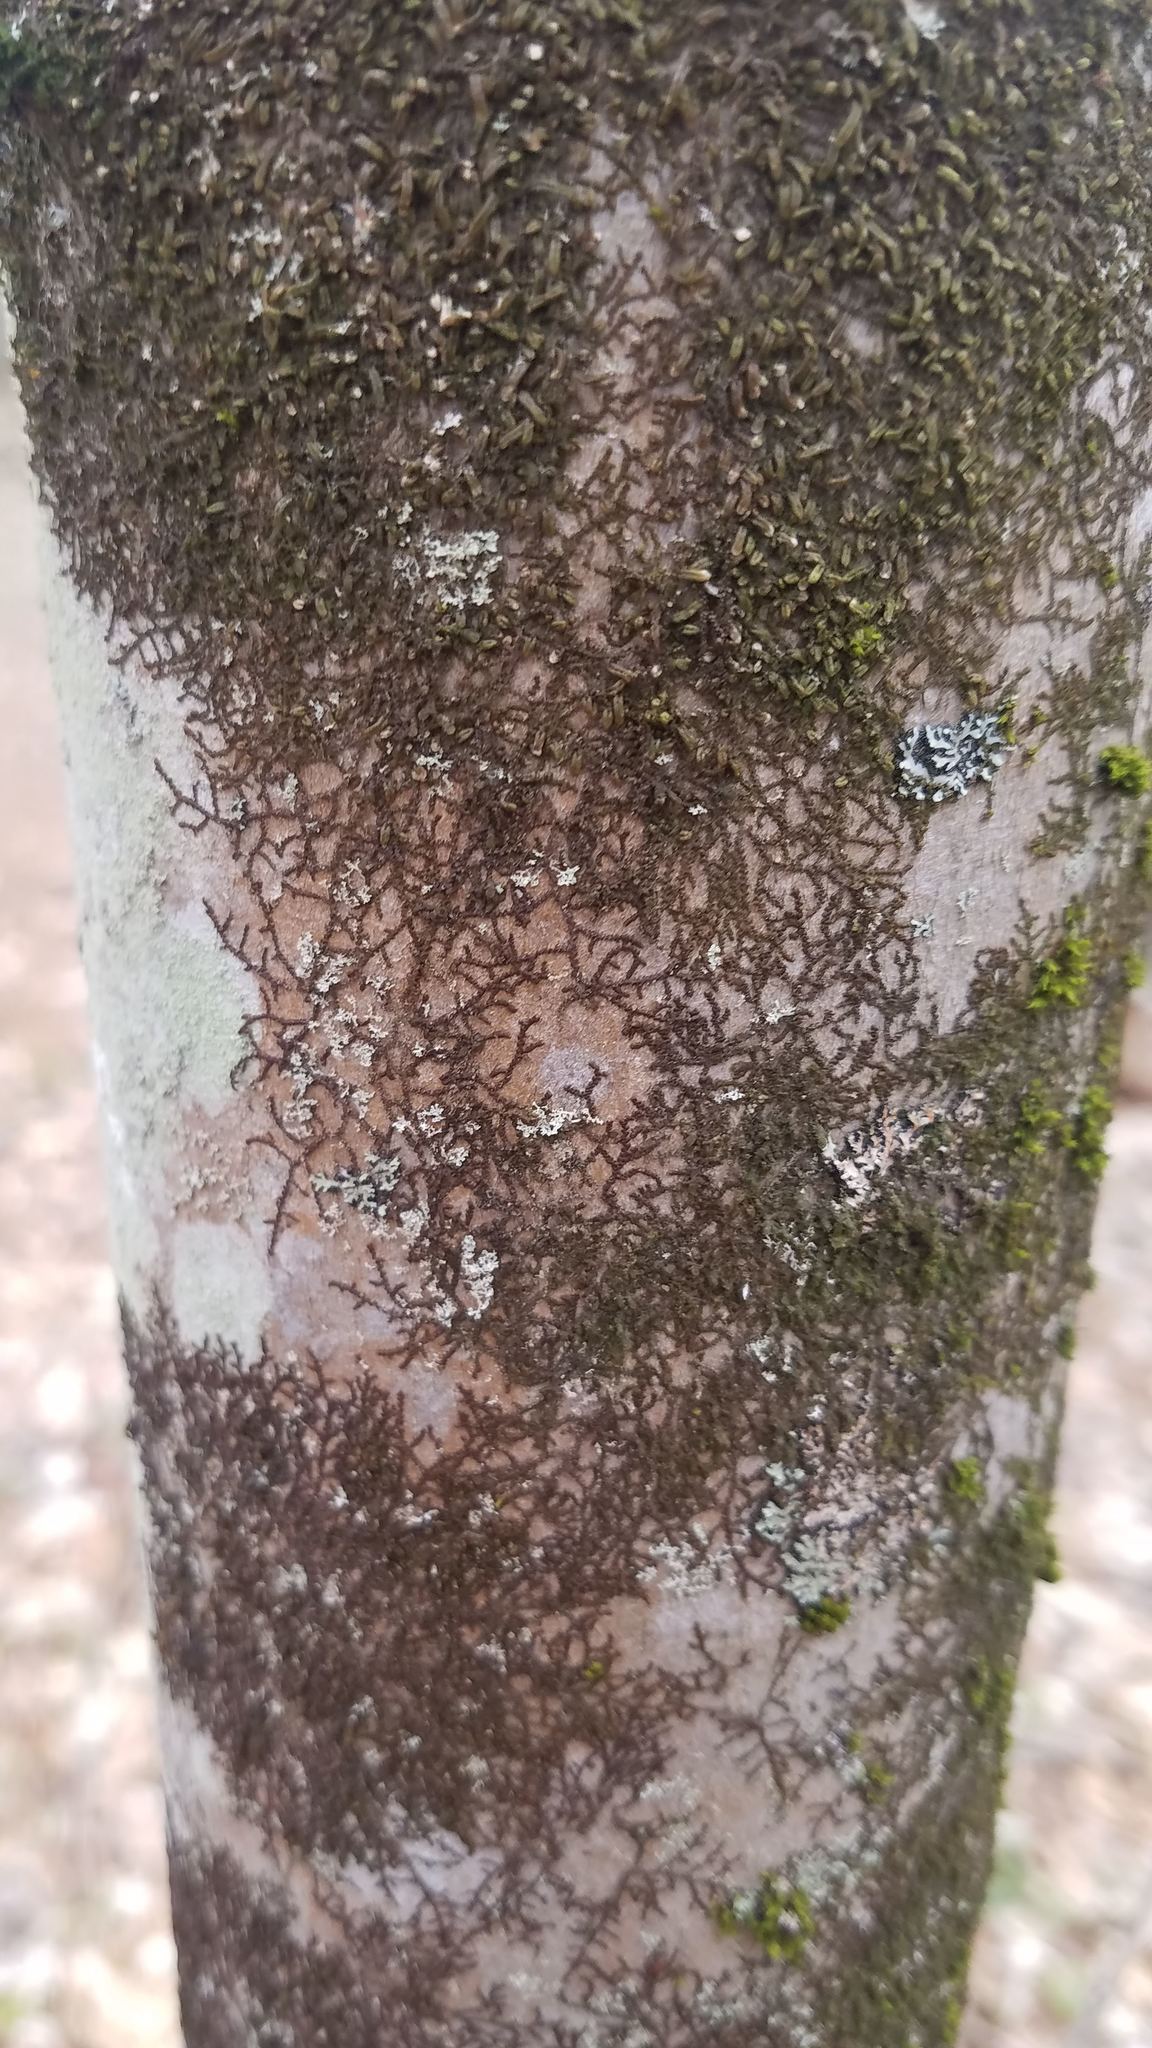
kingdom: Plantae
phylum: Marchantiophyta
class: Jungermanniopsida
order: Porellales
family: Frullaniaceae
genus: Frullania
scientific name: Frullania eboracensis
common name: New york scalewort
